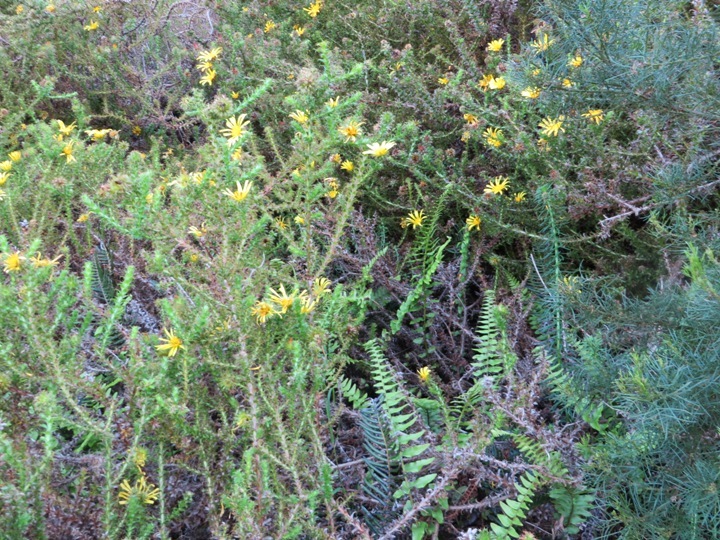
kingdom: Plantae
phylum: Tracheophyta
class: Magnoliopsida
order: Asterales
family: Asteraceae
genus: Cullumia
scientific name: Cullumia setosa
